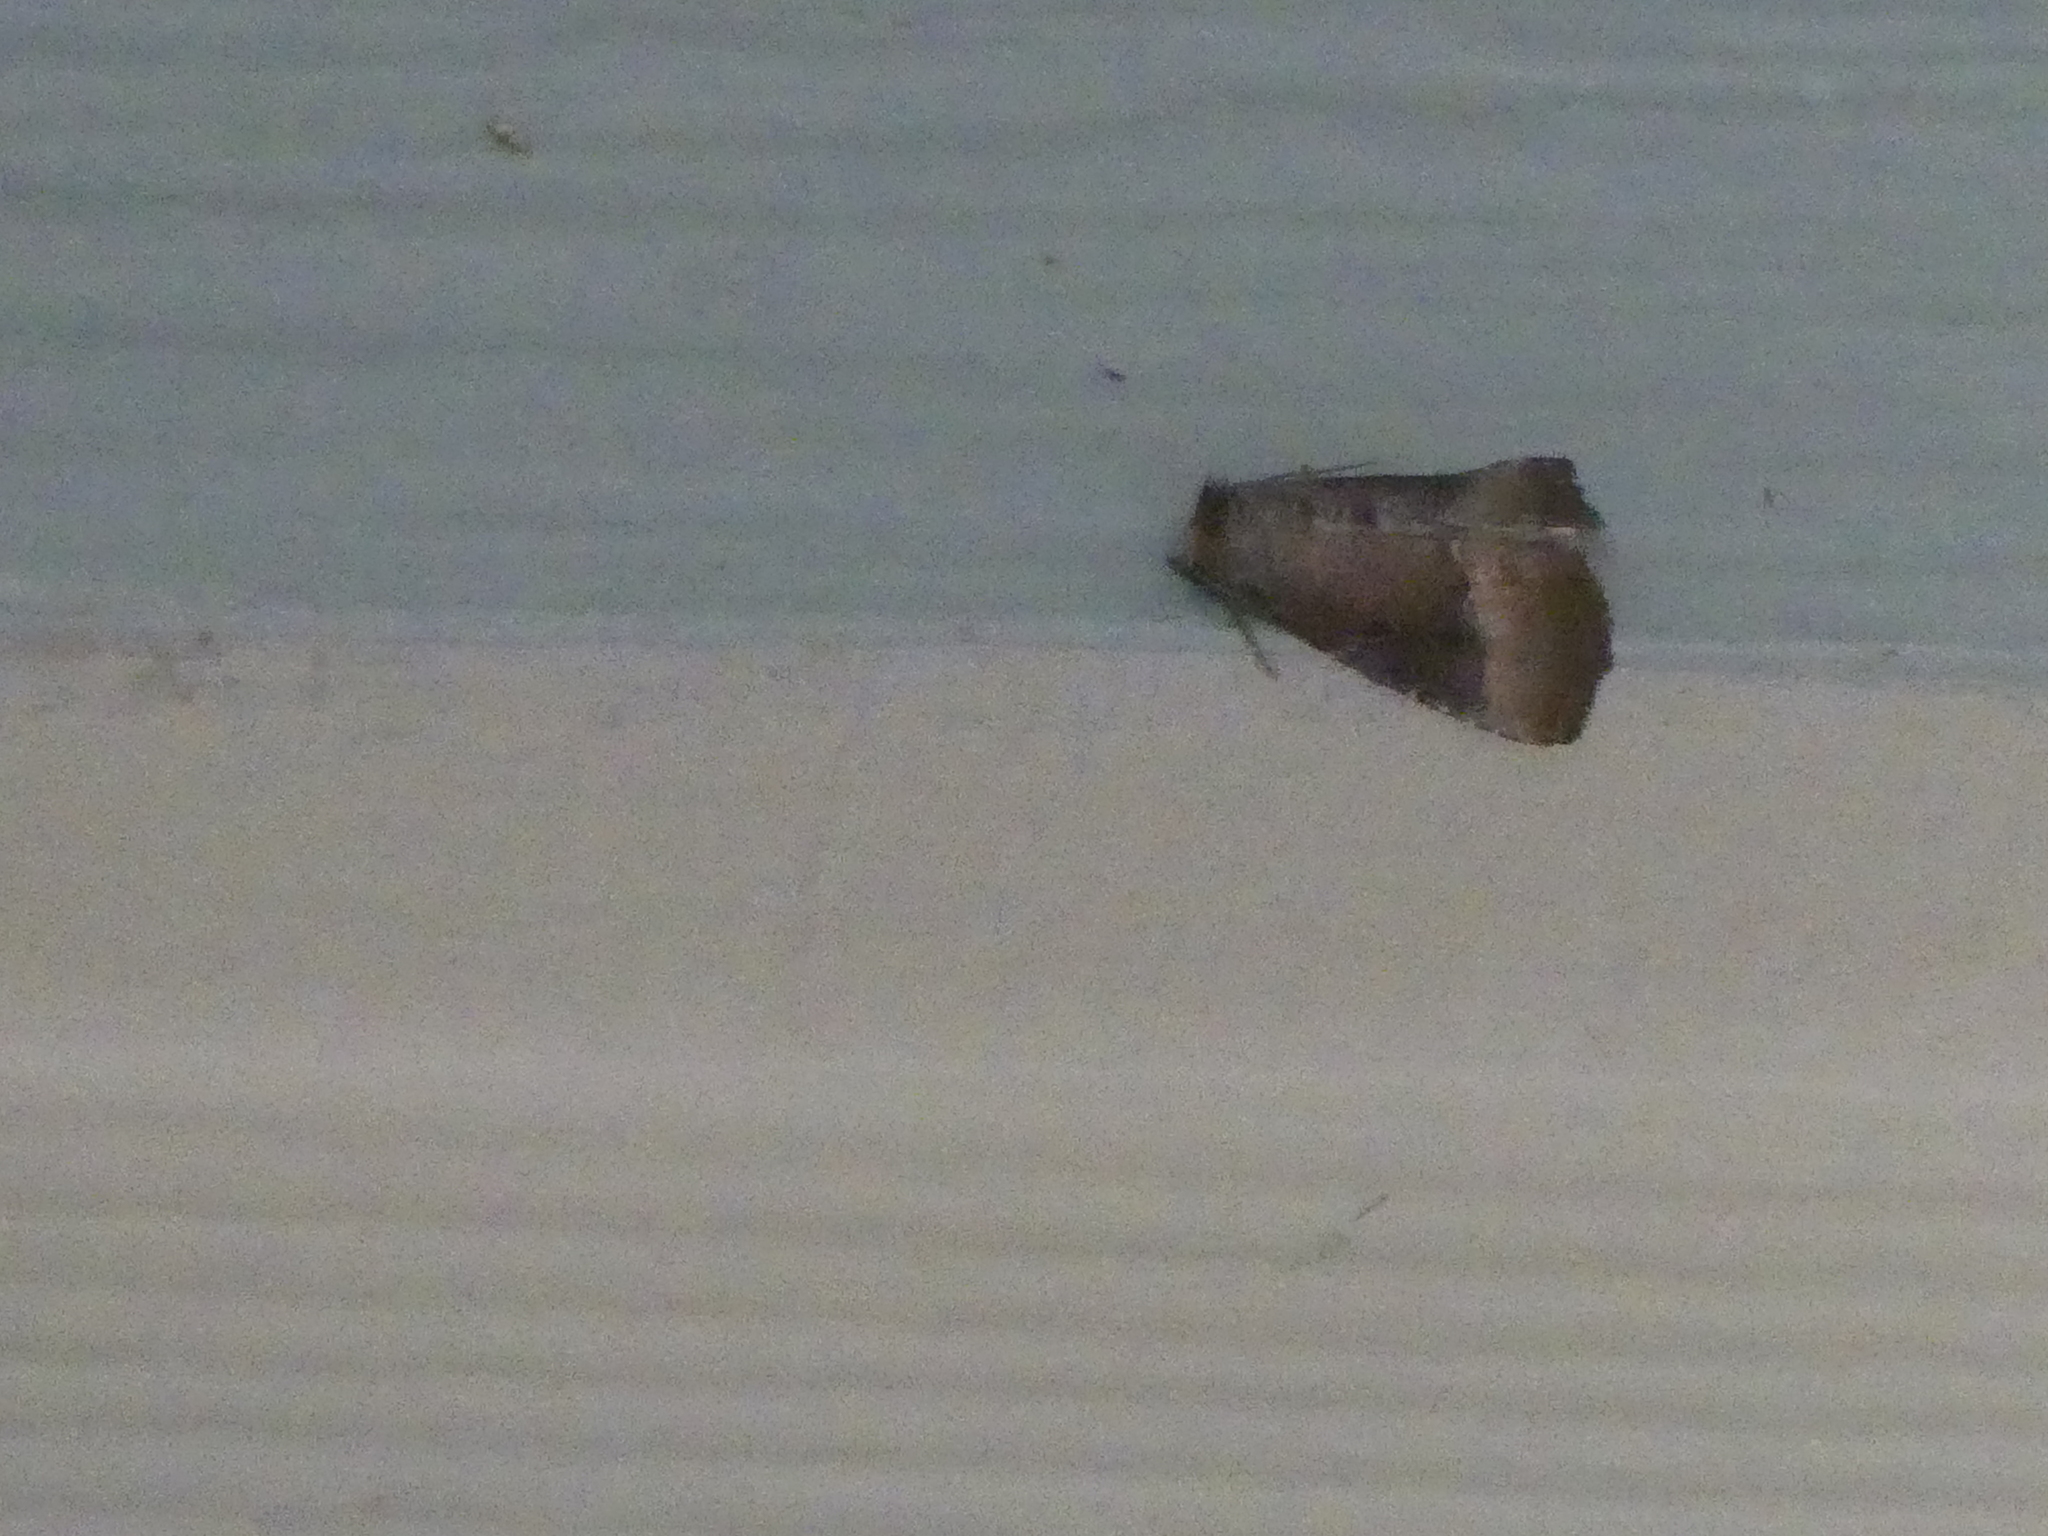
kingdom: Animalia
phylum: Arthropoda
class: Insecta
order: Lepidoptera
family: Noctuidae
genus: Ogdoconta
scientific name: Ogdoconta cinereola
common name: Common pinkband
